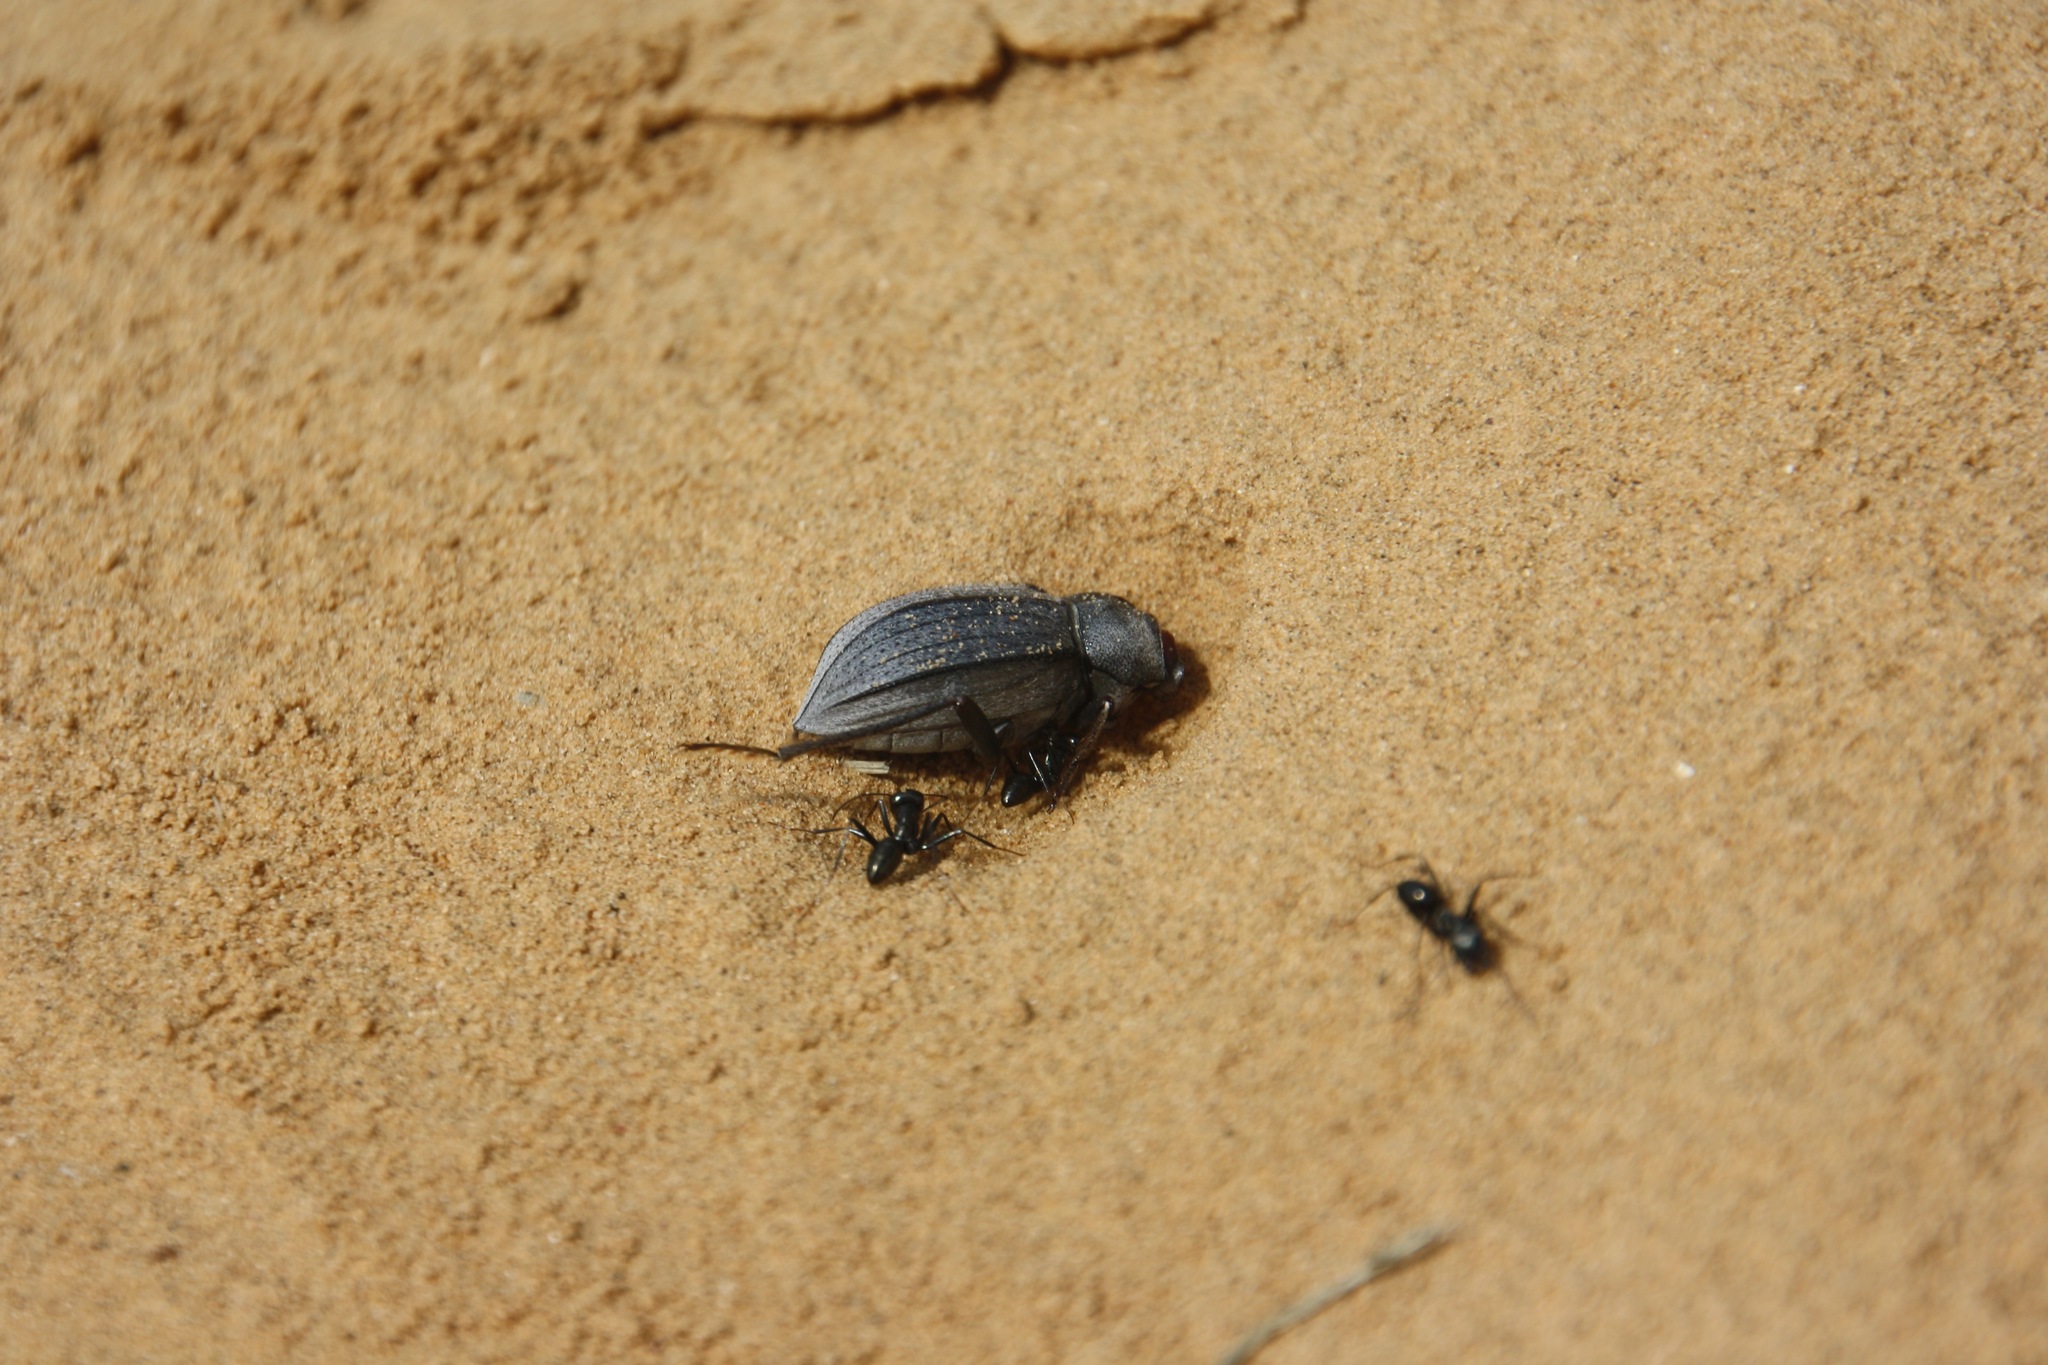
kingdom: Animalia
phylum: Arthropoda
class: Insecta
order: Coleoptera
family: Tenebrionidae
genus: Platyesia
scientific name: Platyesia
